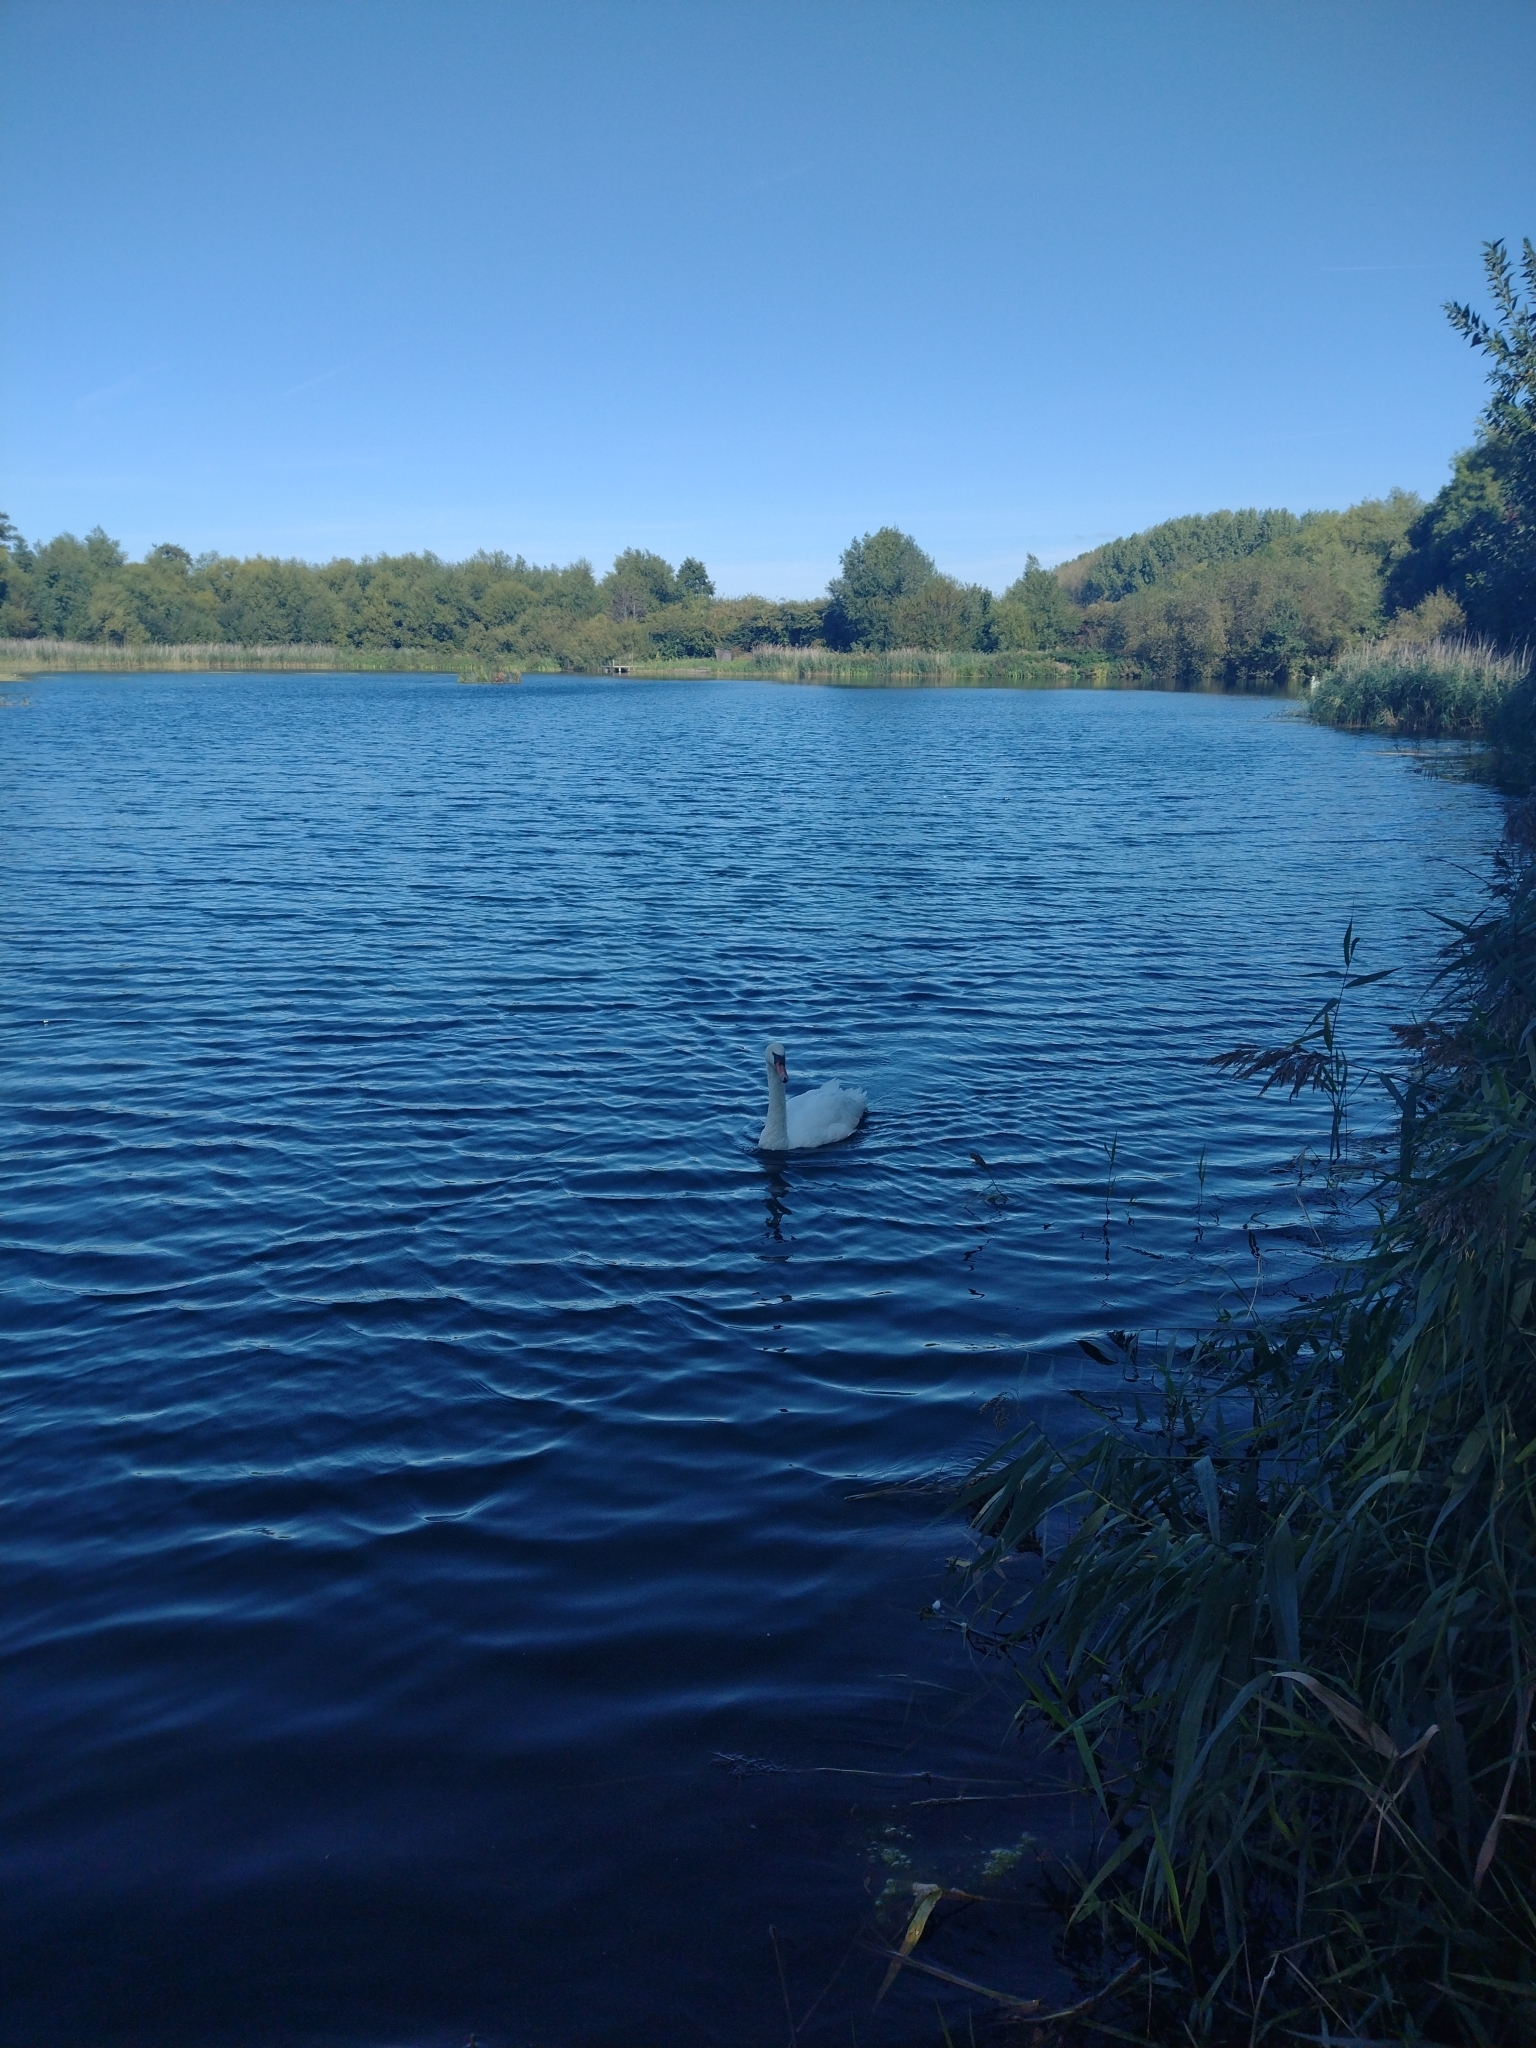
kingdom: Animalia
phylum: Chordata
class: Aves
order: Anseriformes
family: Anatidae
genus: Cygnus
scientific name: Cygnus olor
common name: Mute swan
